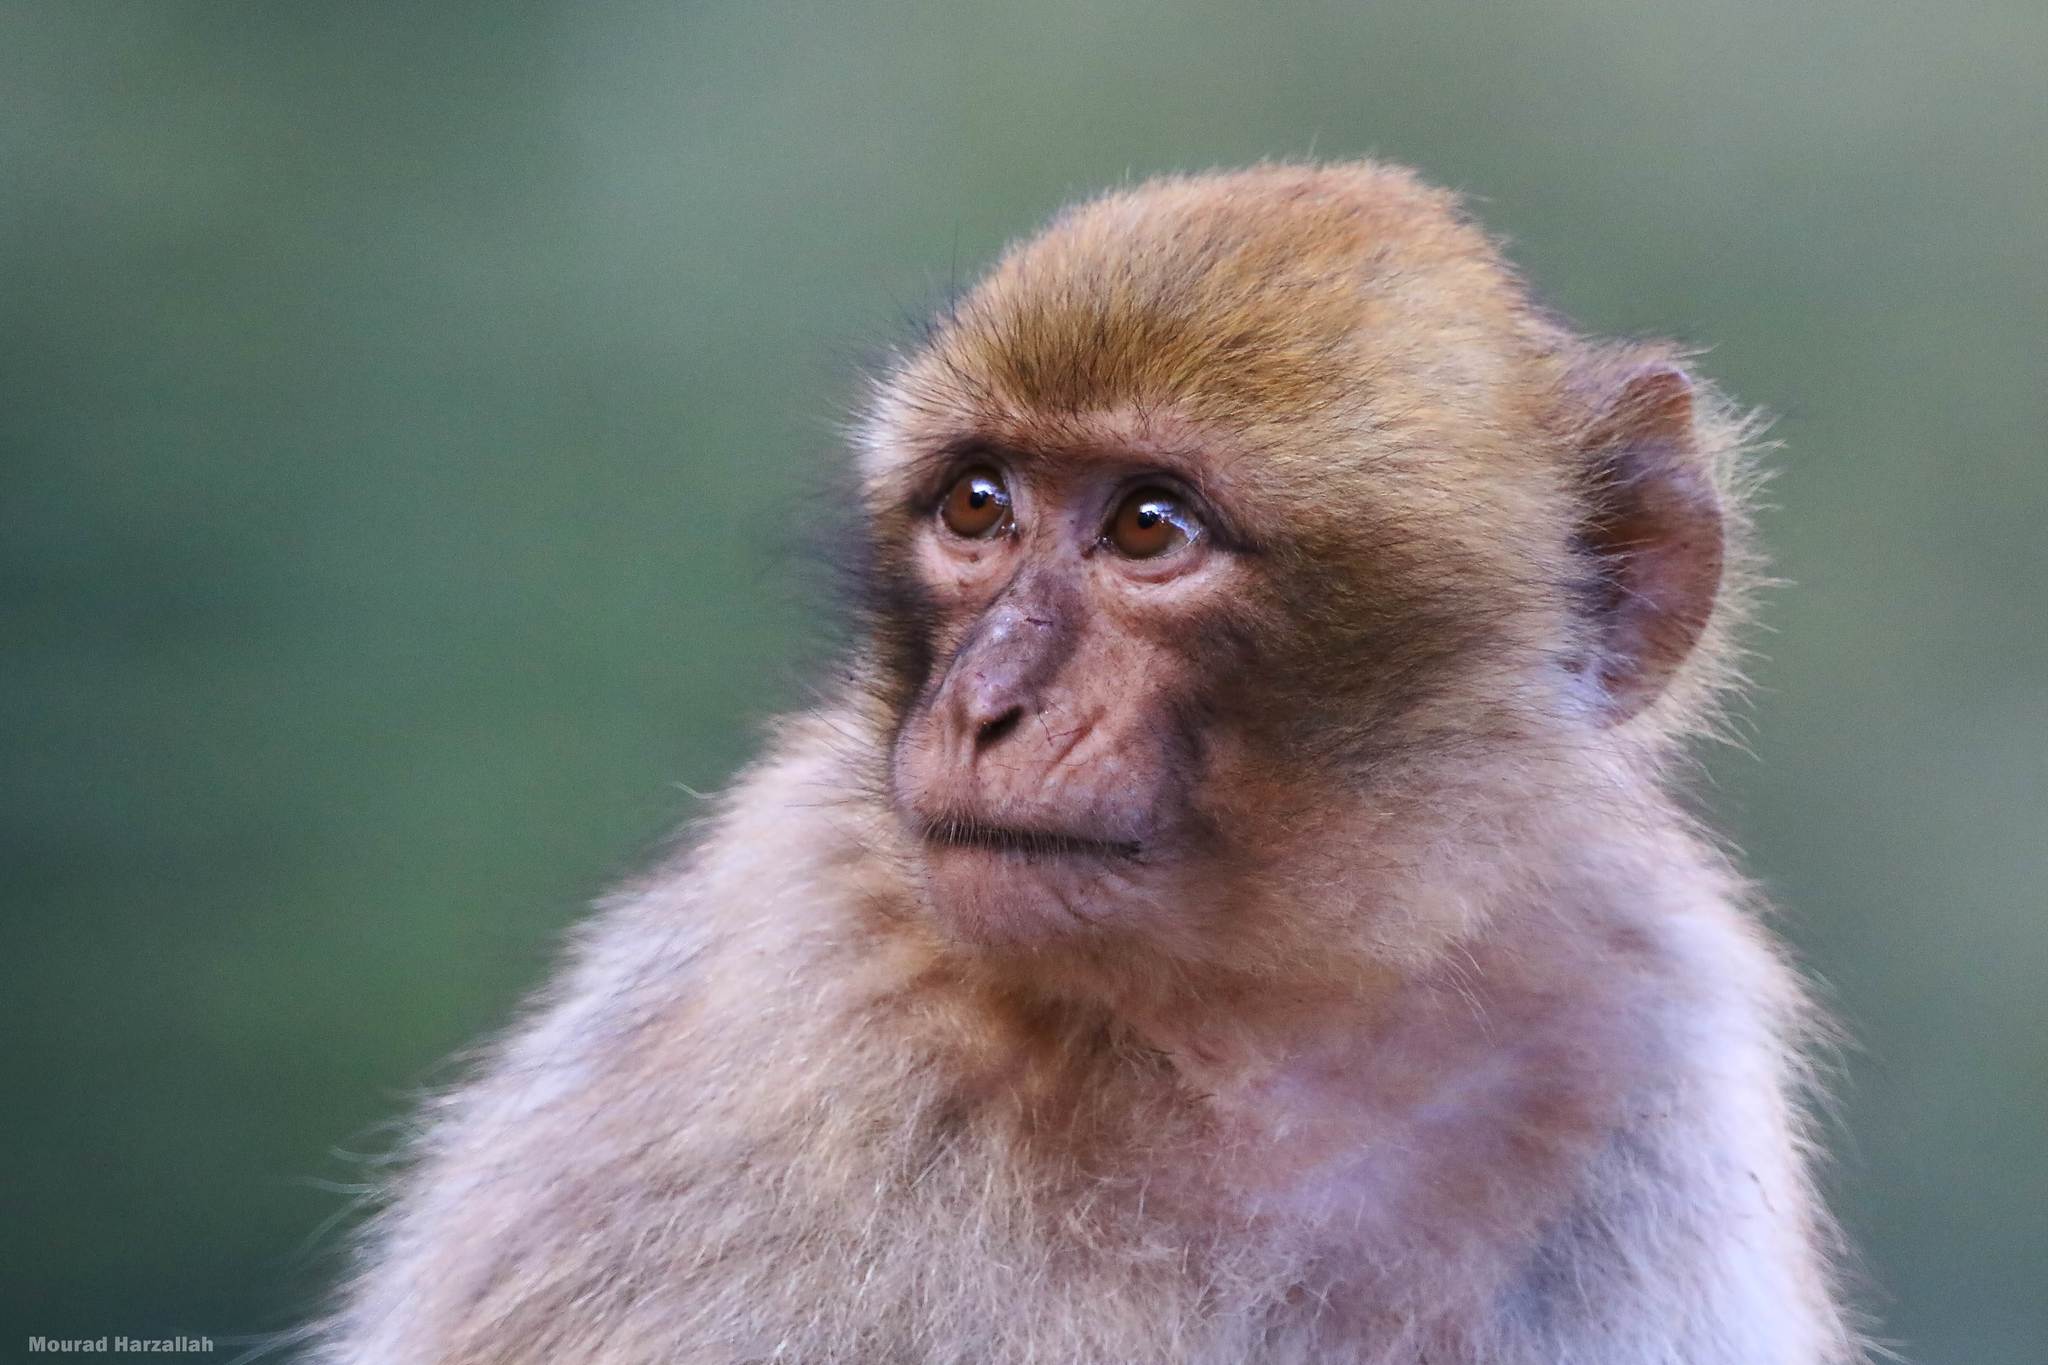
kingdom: Animalia
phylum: Chordata
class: Mammalia
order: Primates
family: Cercopithecidae
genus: Macaca
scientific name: Macaca sylvanus
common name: Barbary macaque
